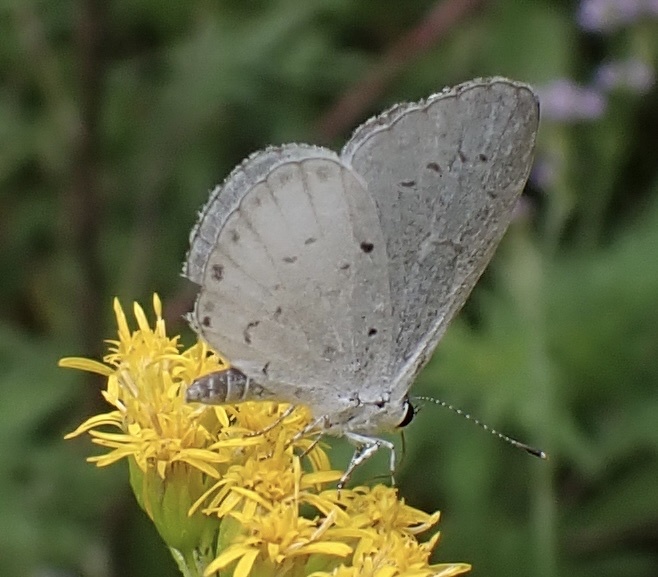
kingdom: Animalia
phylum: Arthropoda
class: Insecta
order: Lepidoptera
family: Lycaenidae
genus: Cyaniris
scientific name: Cyaniris neglecta
